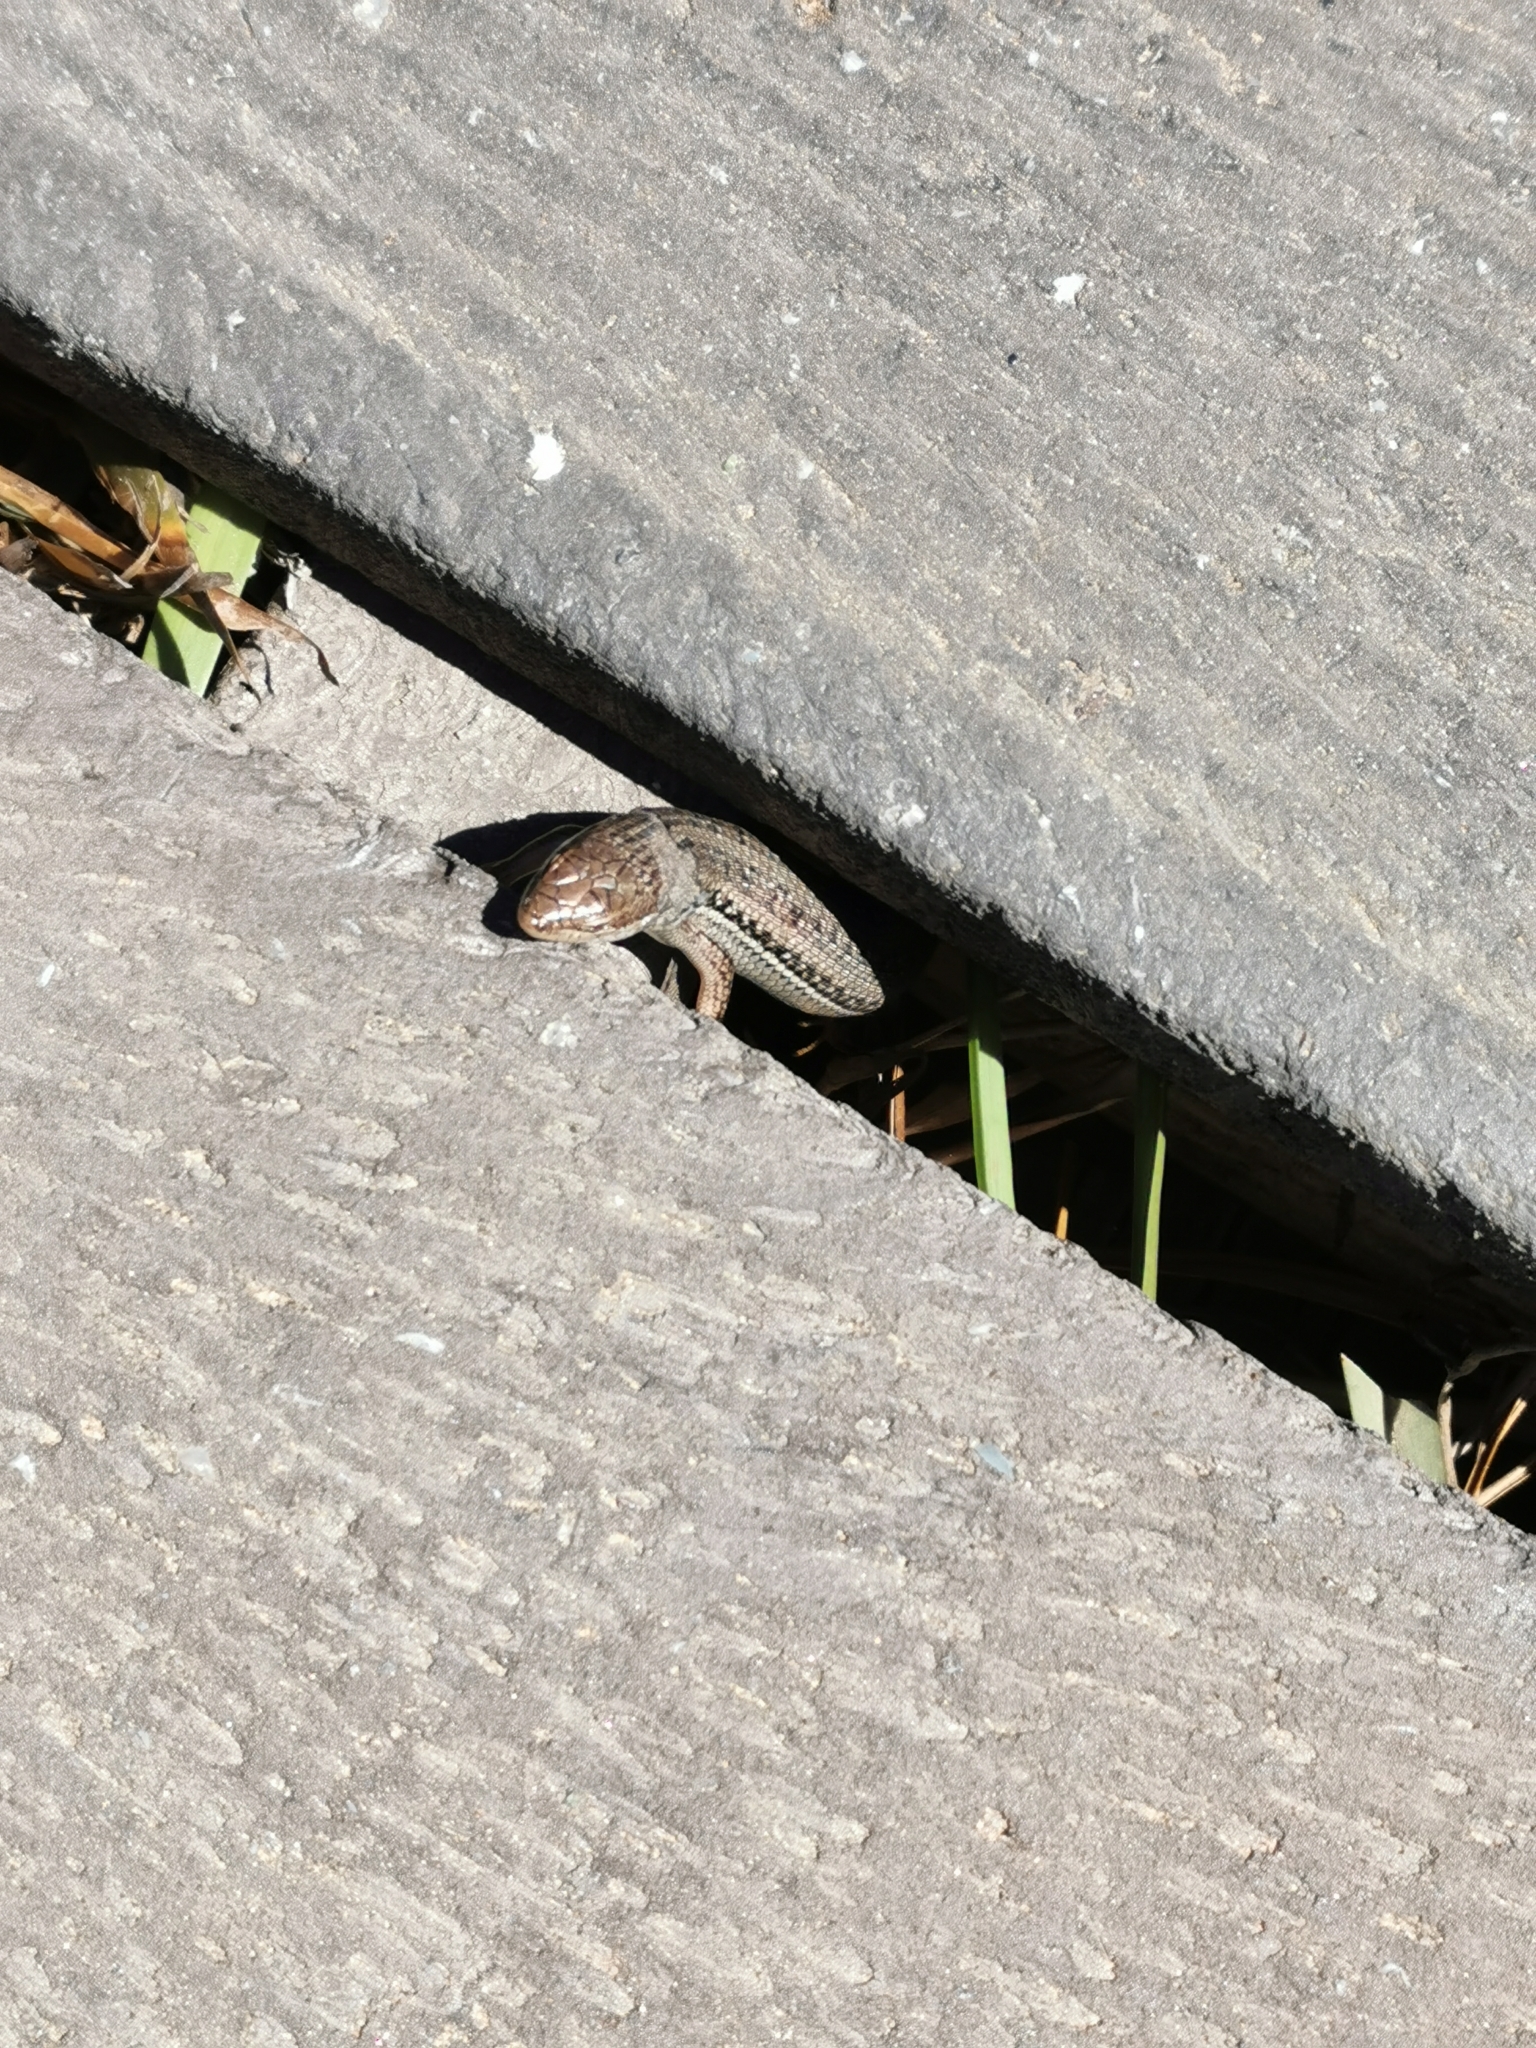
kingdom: Animalia
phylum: Chordata
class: Squamata
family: Scincidae
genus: Trachylepis
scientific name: Trachylepis homalocephala
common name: Red-sided skink
